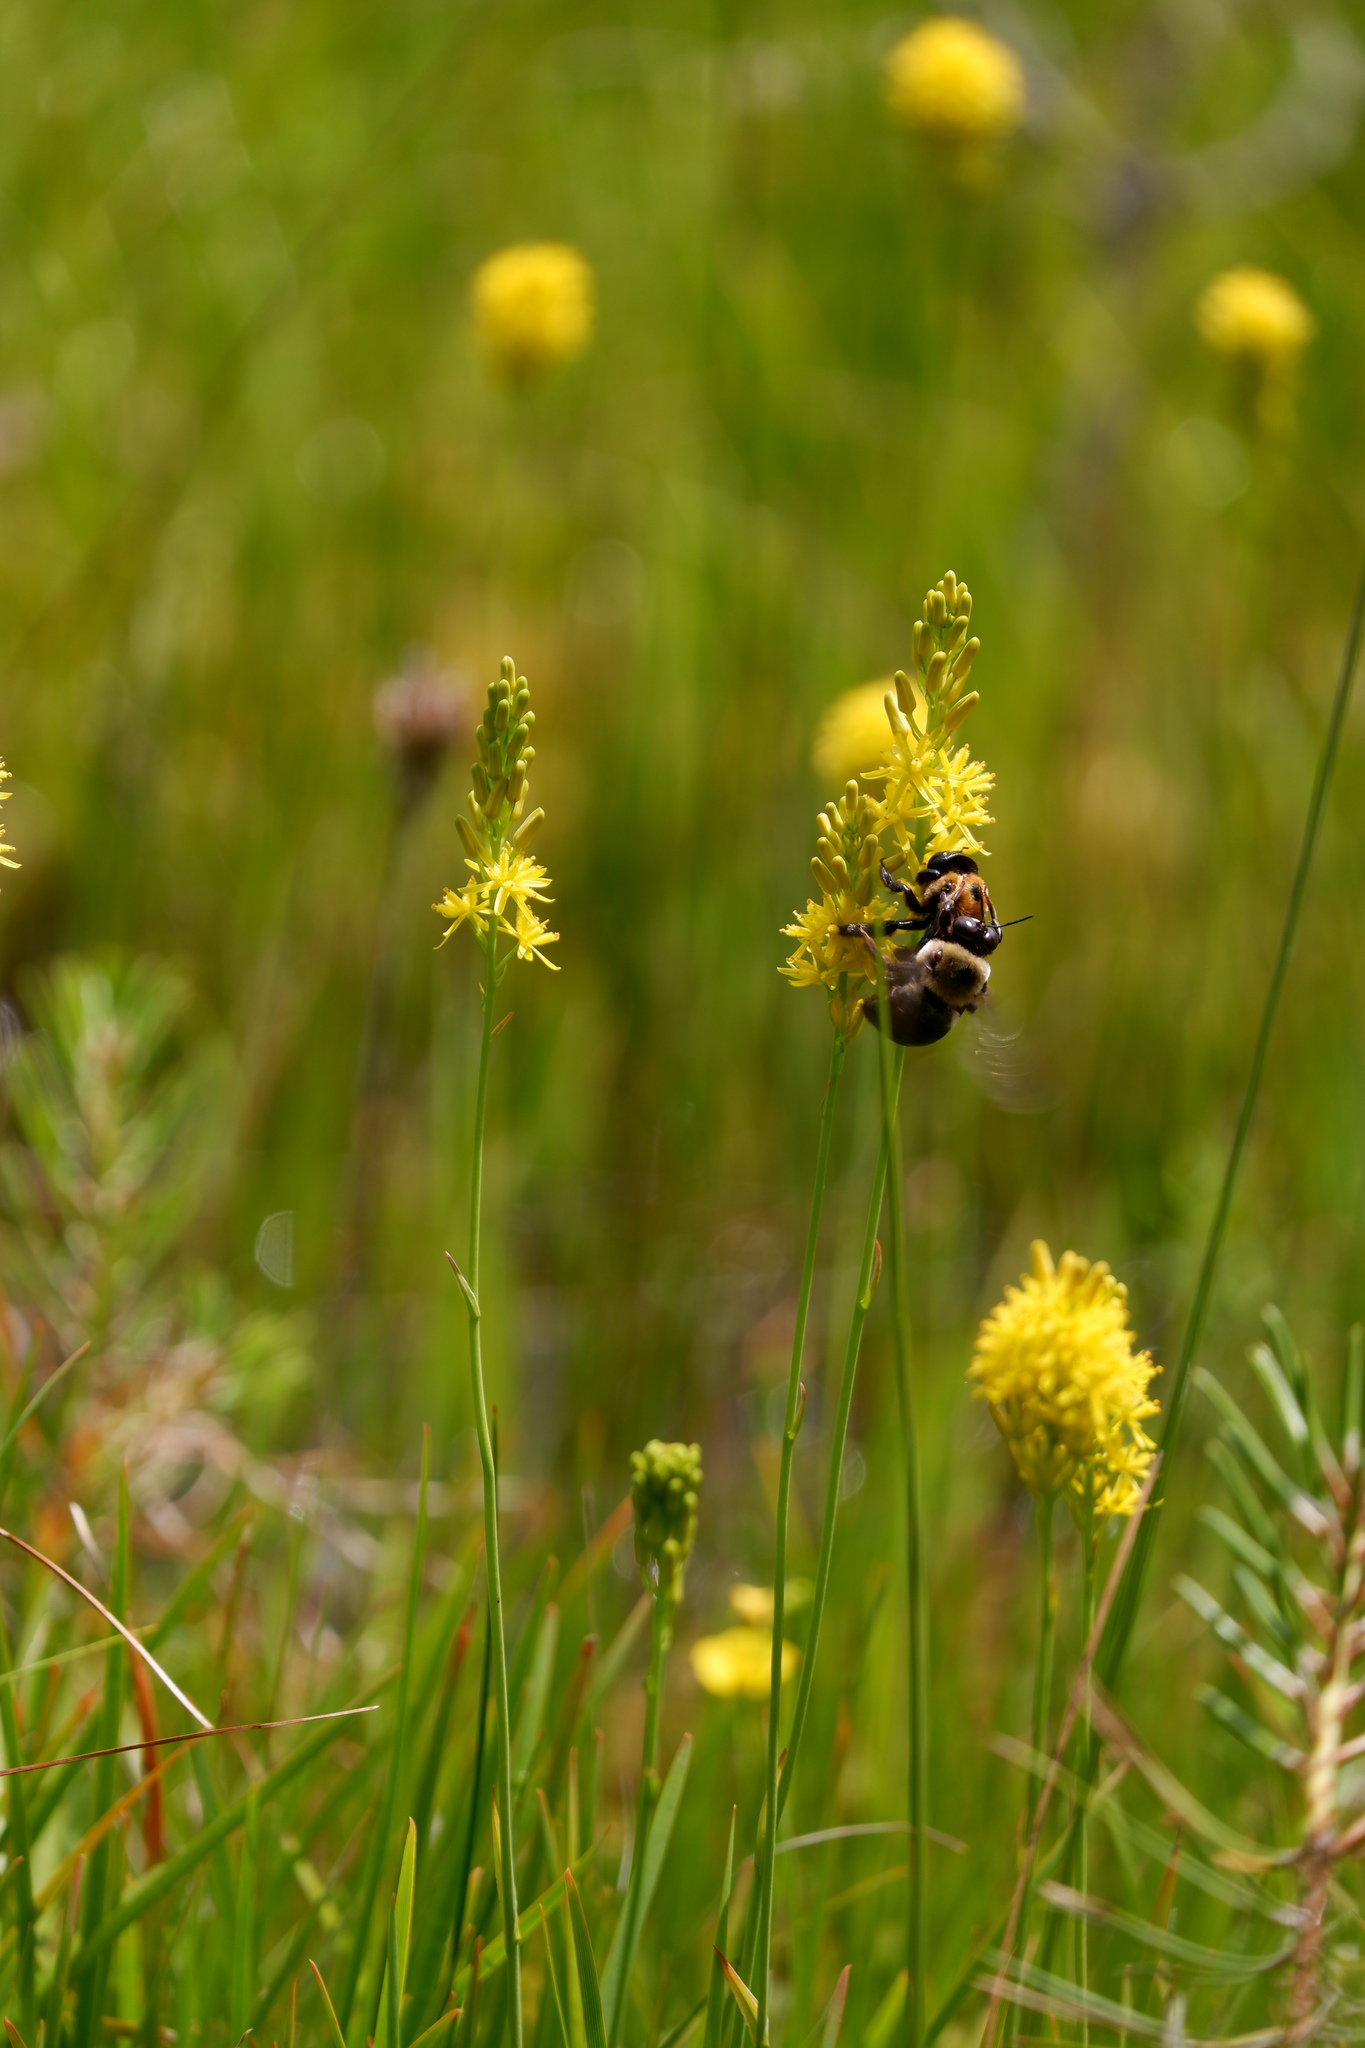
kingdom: Animalia
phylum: Arthropoda
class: Insecta
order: Hymenoptera
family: Apidae
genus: Xylocopa
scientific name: Xylocopa virginica
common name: Carpenter bee
